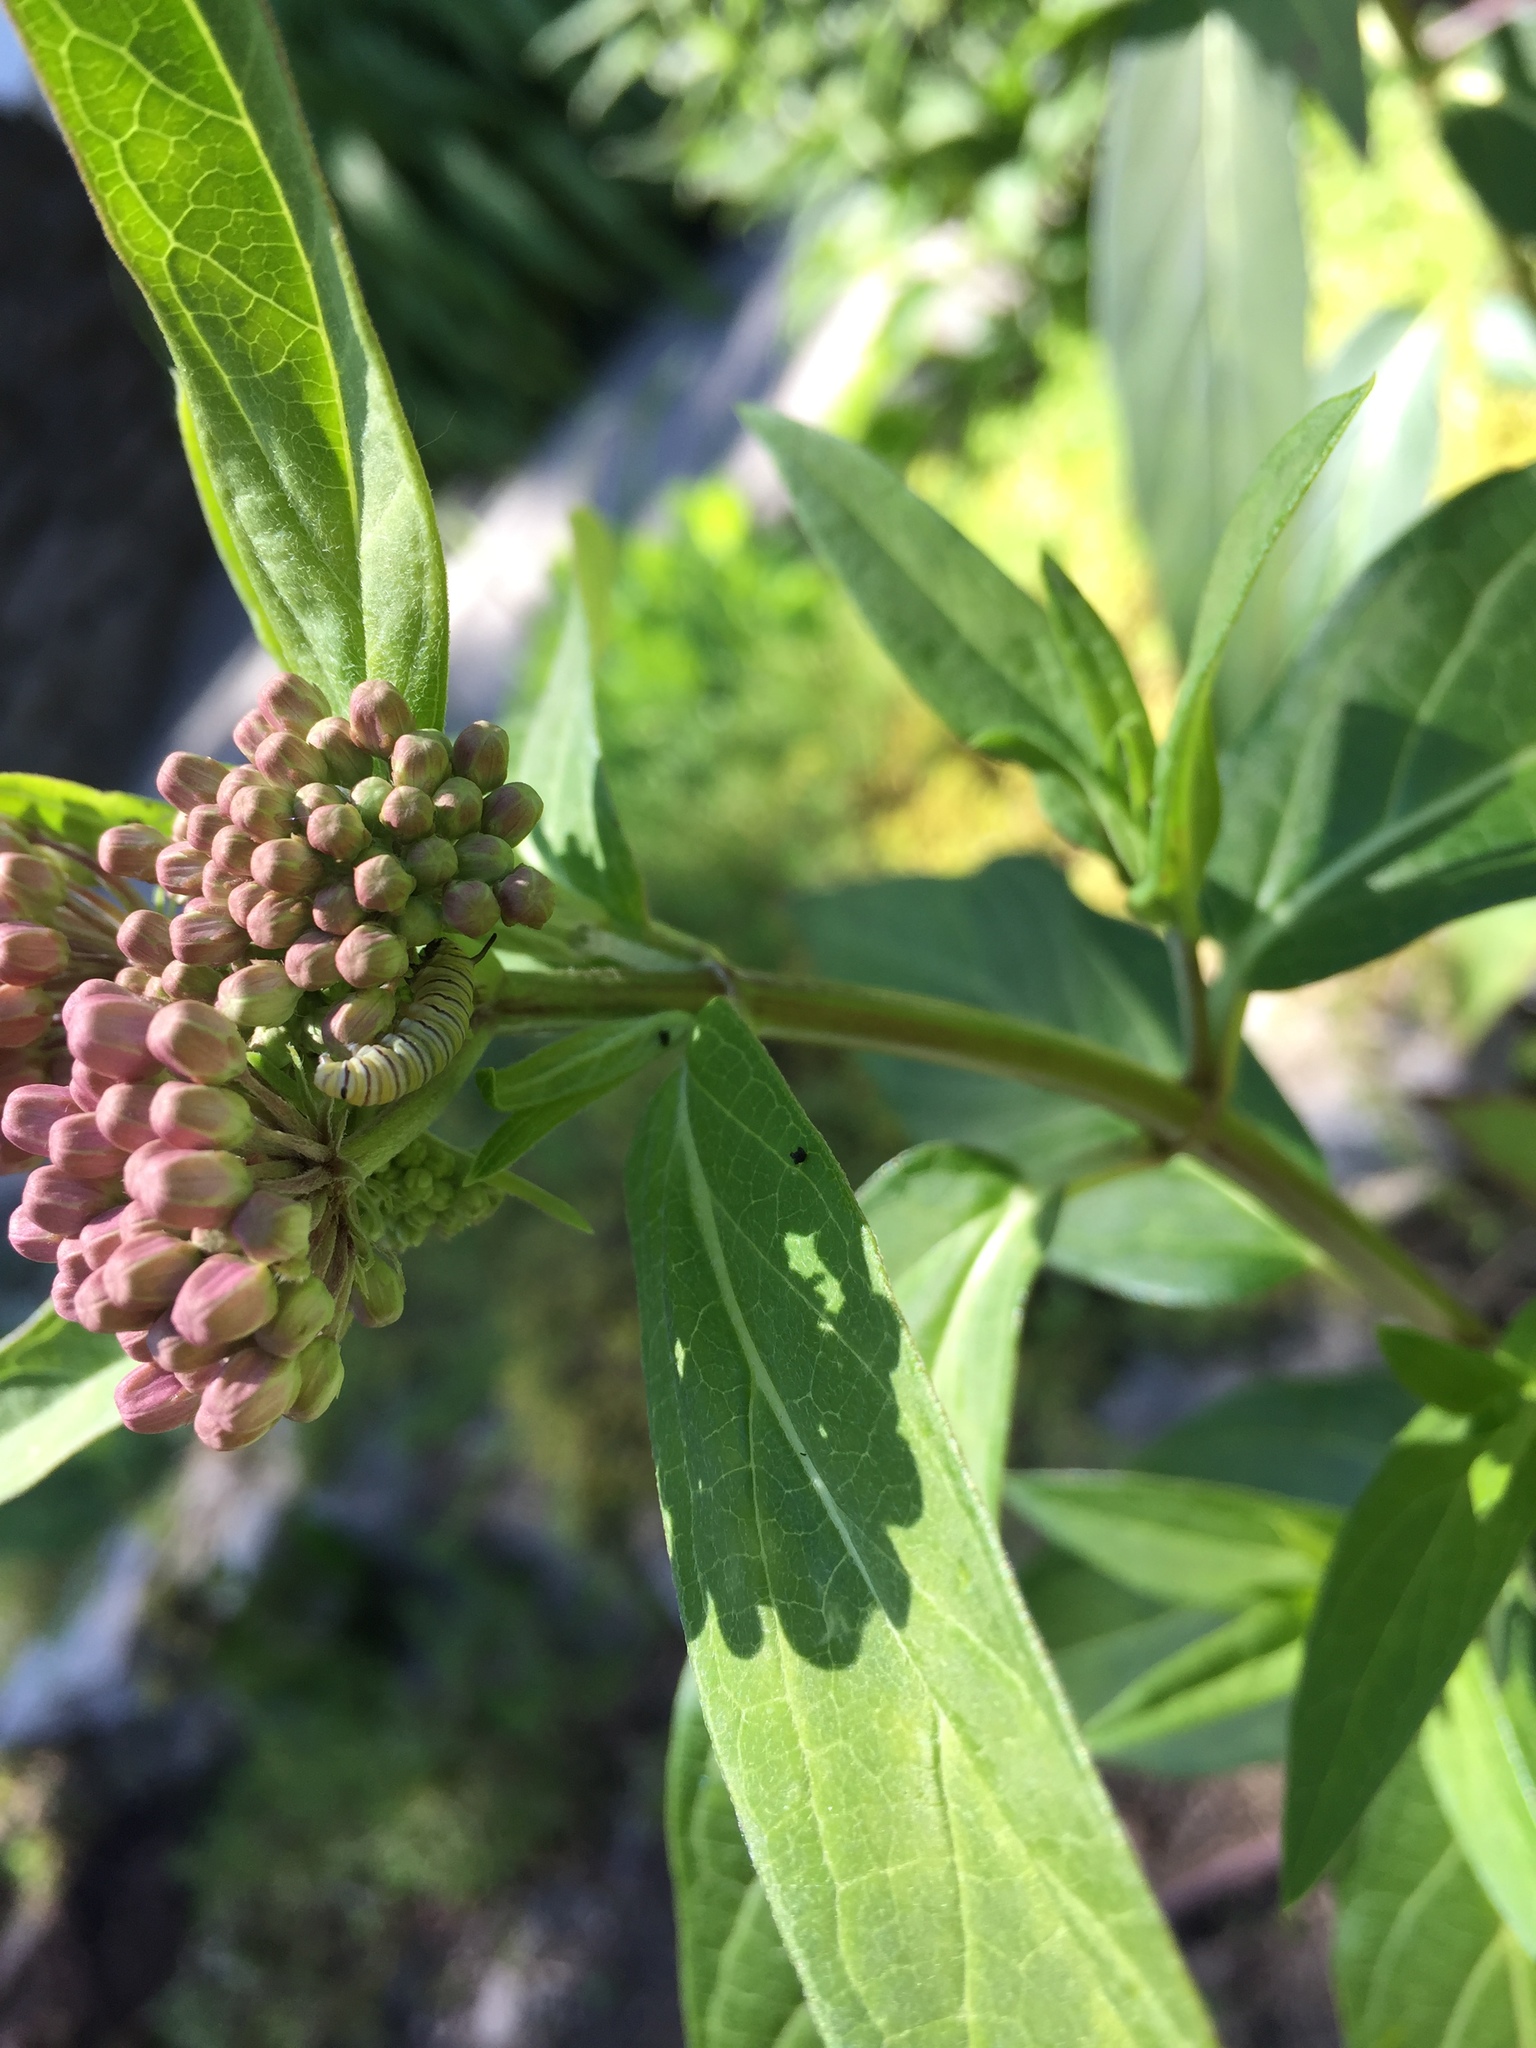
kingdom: Animalia
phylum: Arthropoda
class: Insecta
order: Lepidoptera
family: Nymphalidae
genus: Danaus
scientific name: Danaus plexippus
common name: Monarch
